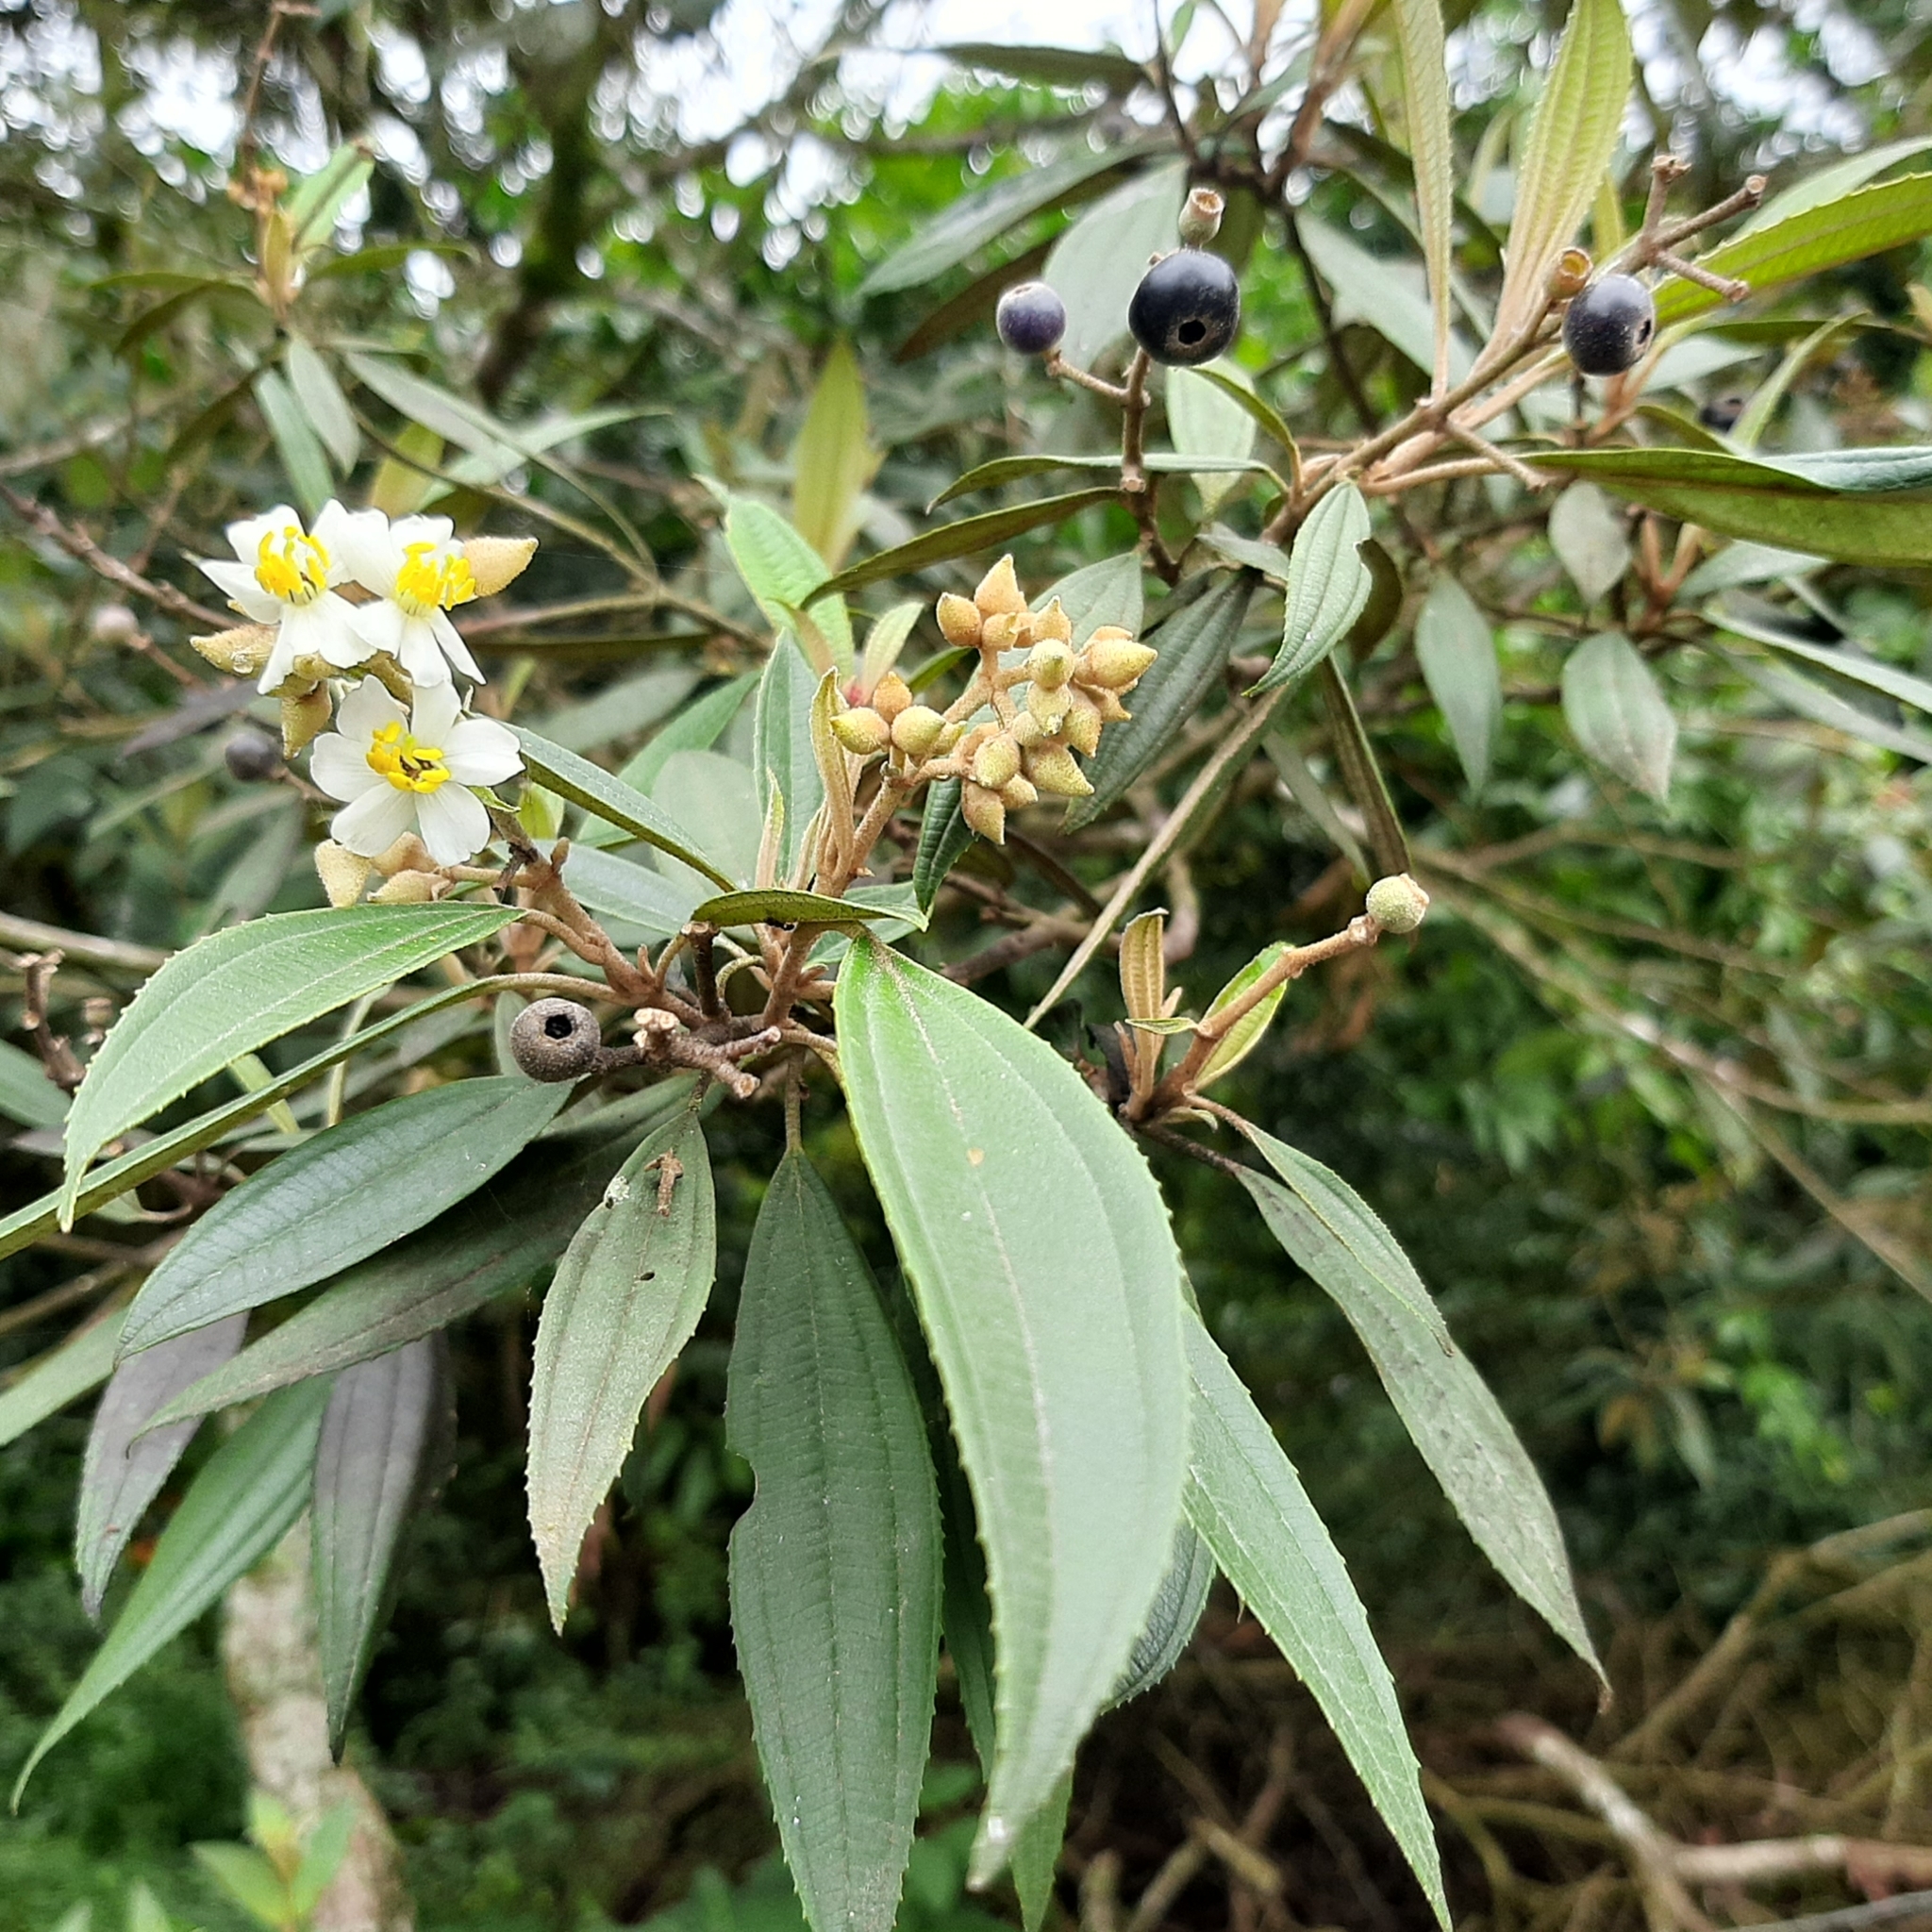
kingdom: Plantae
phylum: Tracheophyta
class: Magnoliopsida
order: Myrtales
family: Melastomataceae
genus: Miconia
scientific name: Miconia xalapensis
